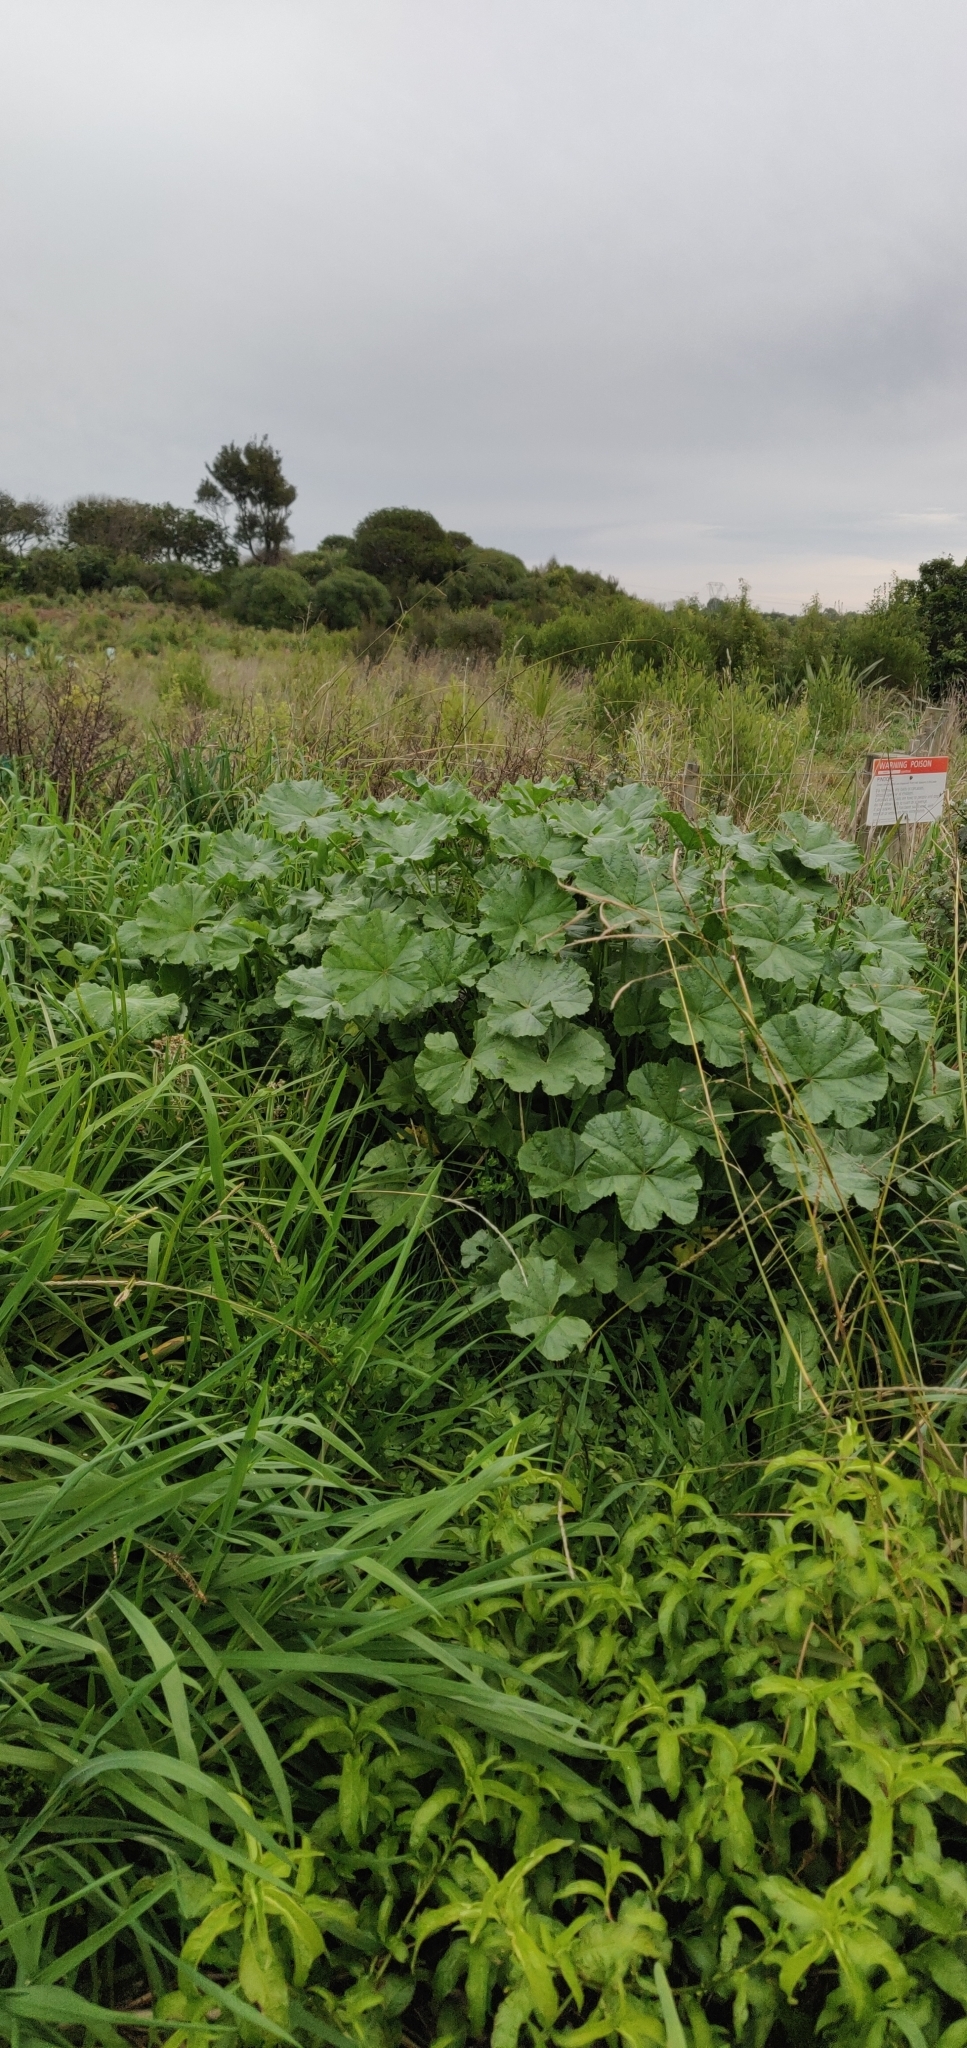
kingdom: Plantae
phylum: Tracheophyta
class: Magnoliopsida
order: Malvales
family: Malvaceae
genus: Malva
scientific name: Malva arborea
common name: Tree mallow
